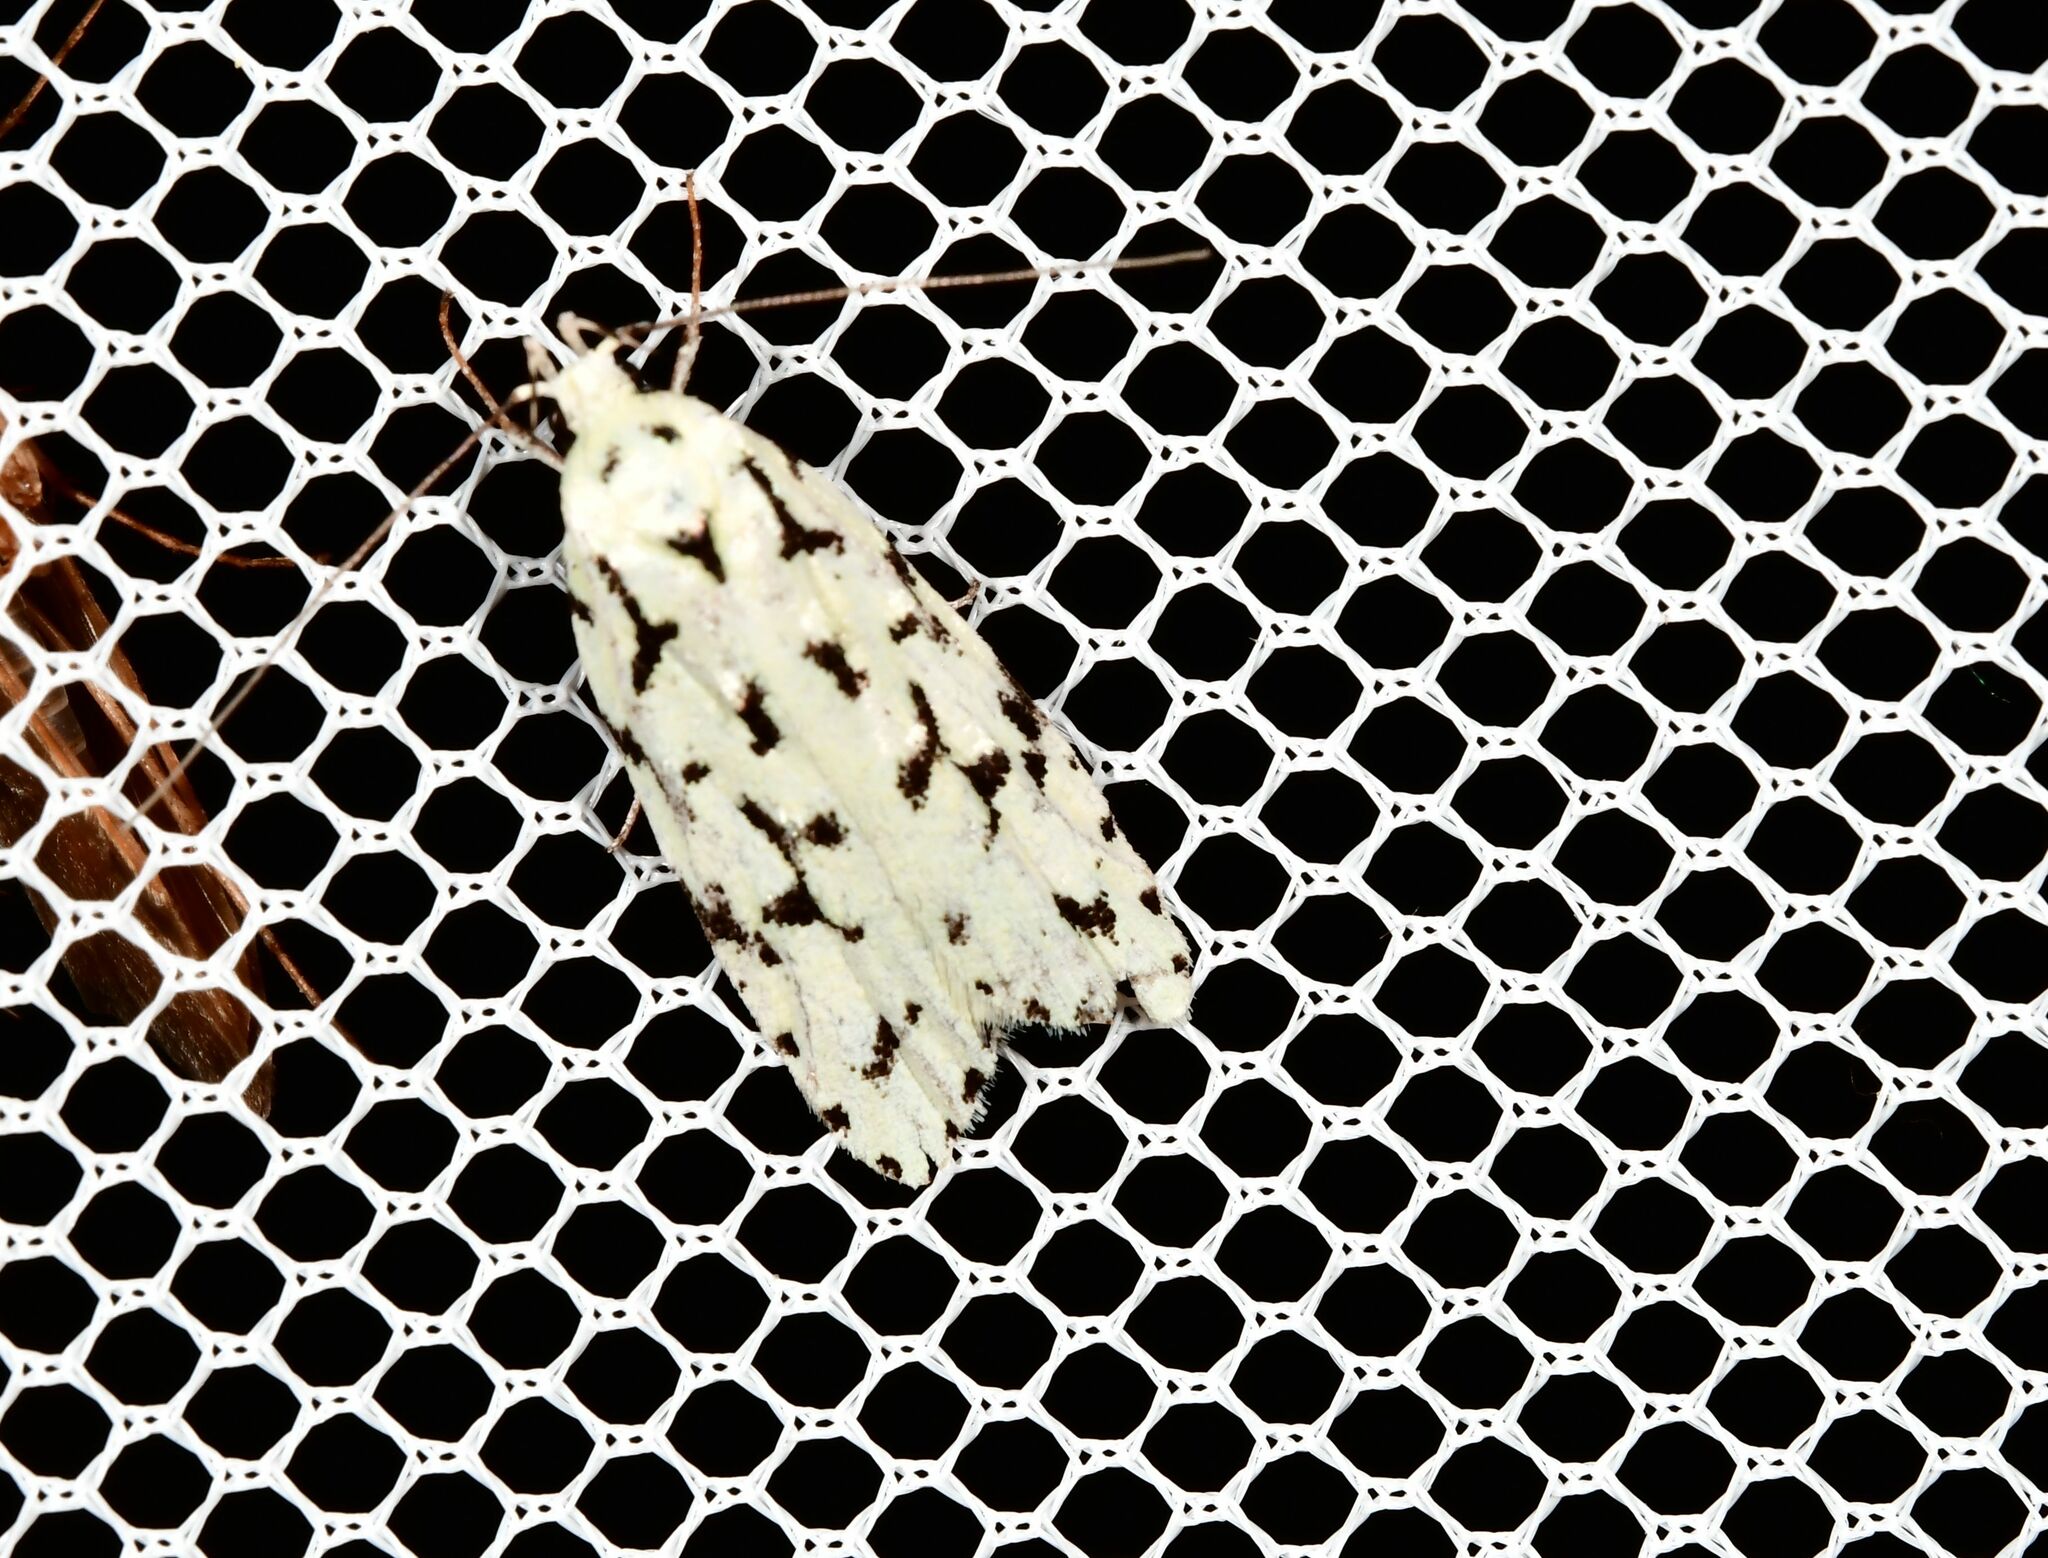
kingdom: Animalia
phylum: Arthropoda
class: Insecta
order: Lepidoptera
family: Oecophoridae
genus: Izatha
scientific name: Izatha huttoni
